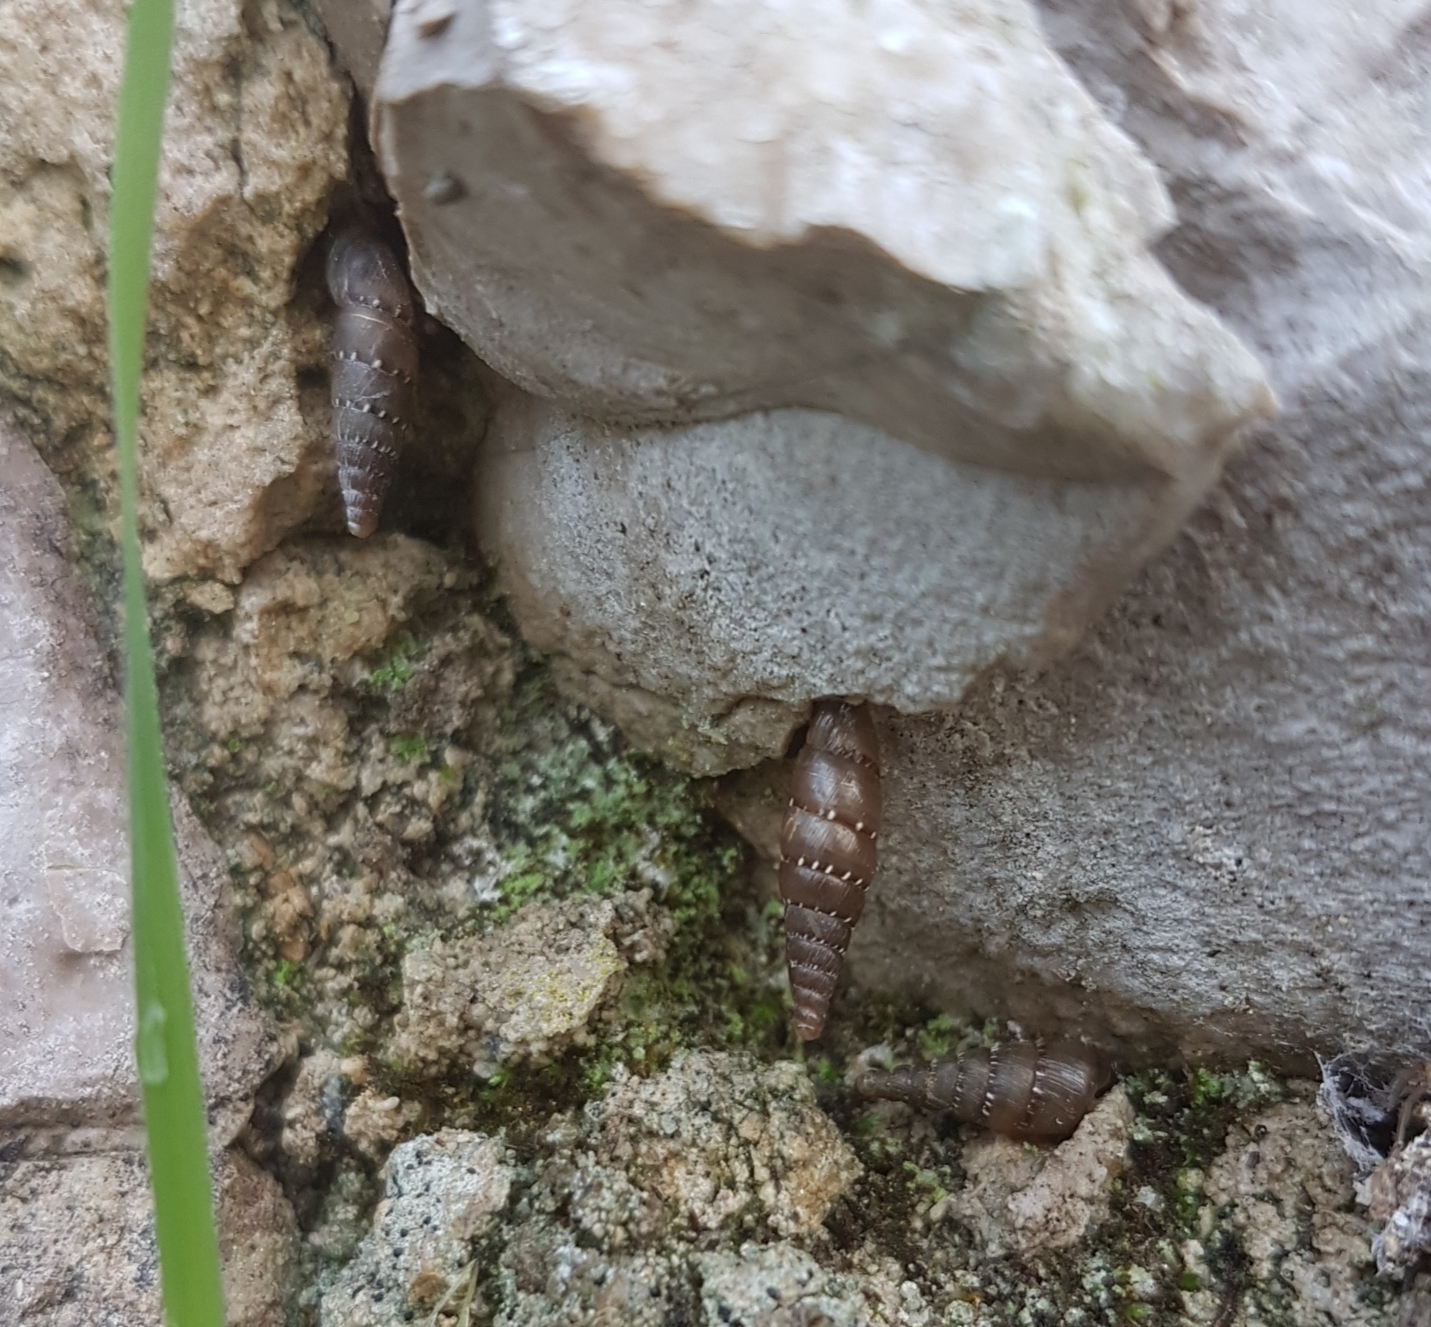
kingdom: Animalia
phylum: Mollusca
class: Gastropoda
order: Stylommatophora
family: Clausiliidae
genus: Papillifera
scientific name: Papillifera papillaris
